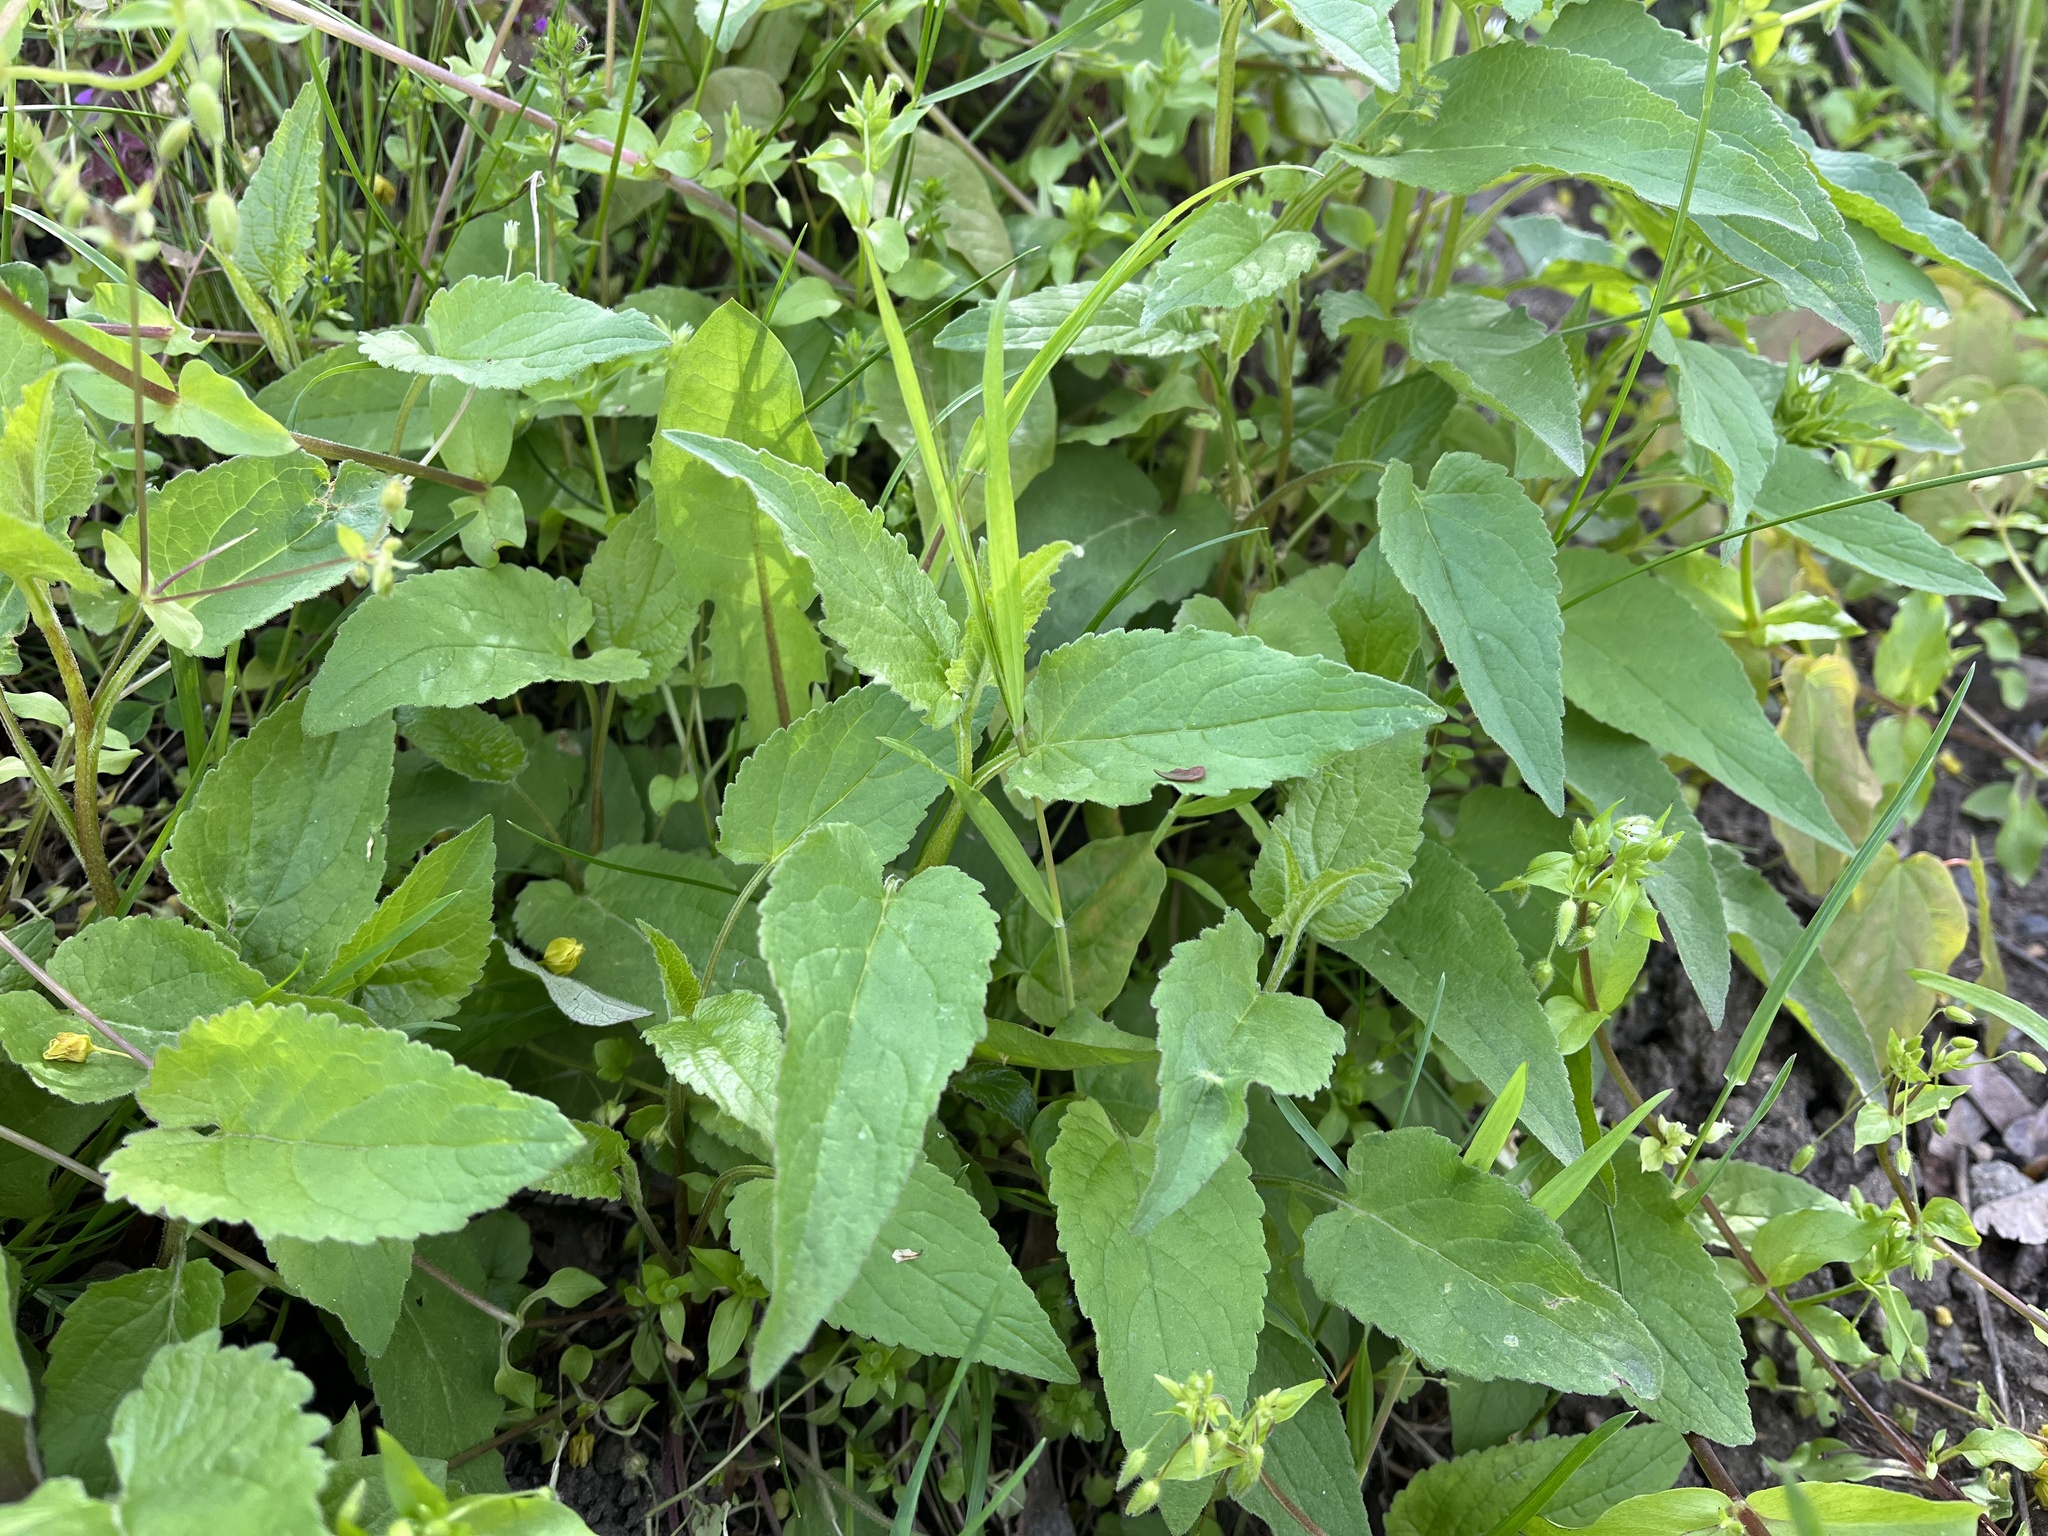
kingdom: Plantae
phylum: Tracheophyta
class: Magnoliopsida
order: Asterales
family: Campanulaceae
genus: Campanula
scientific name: Campanula rapunculoides
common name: Creeping bellflower
